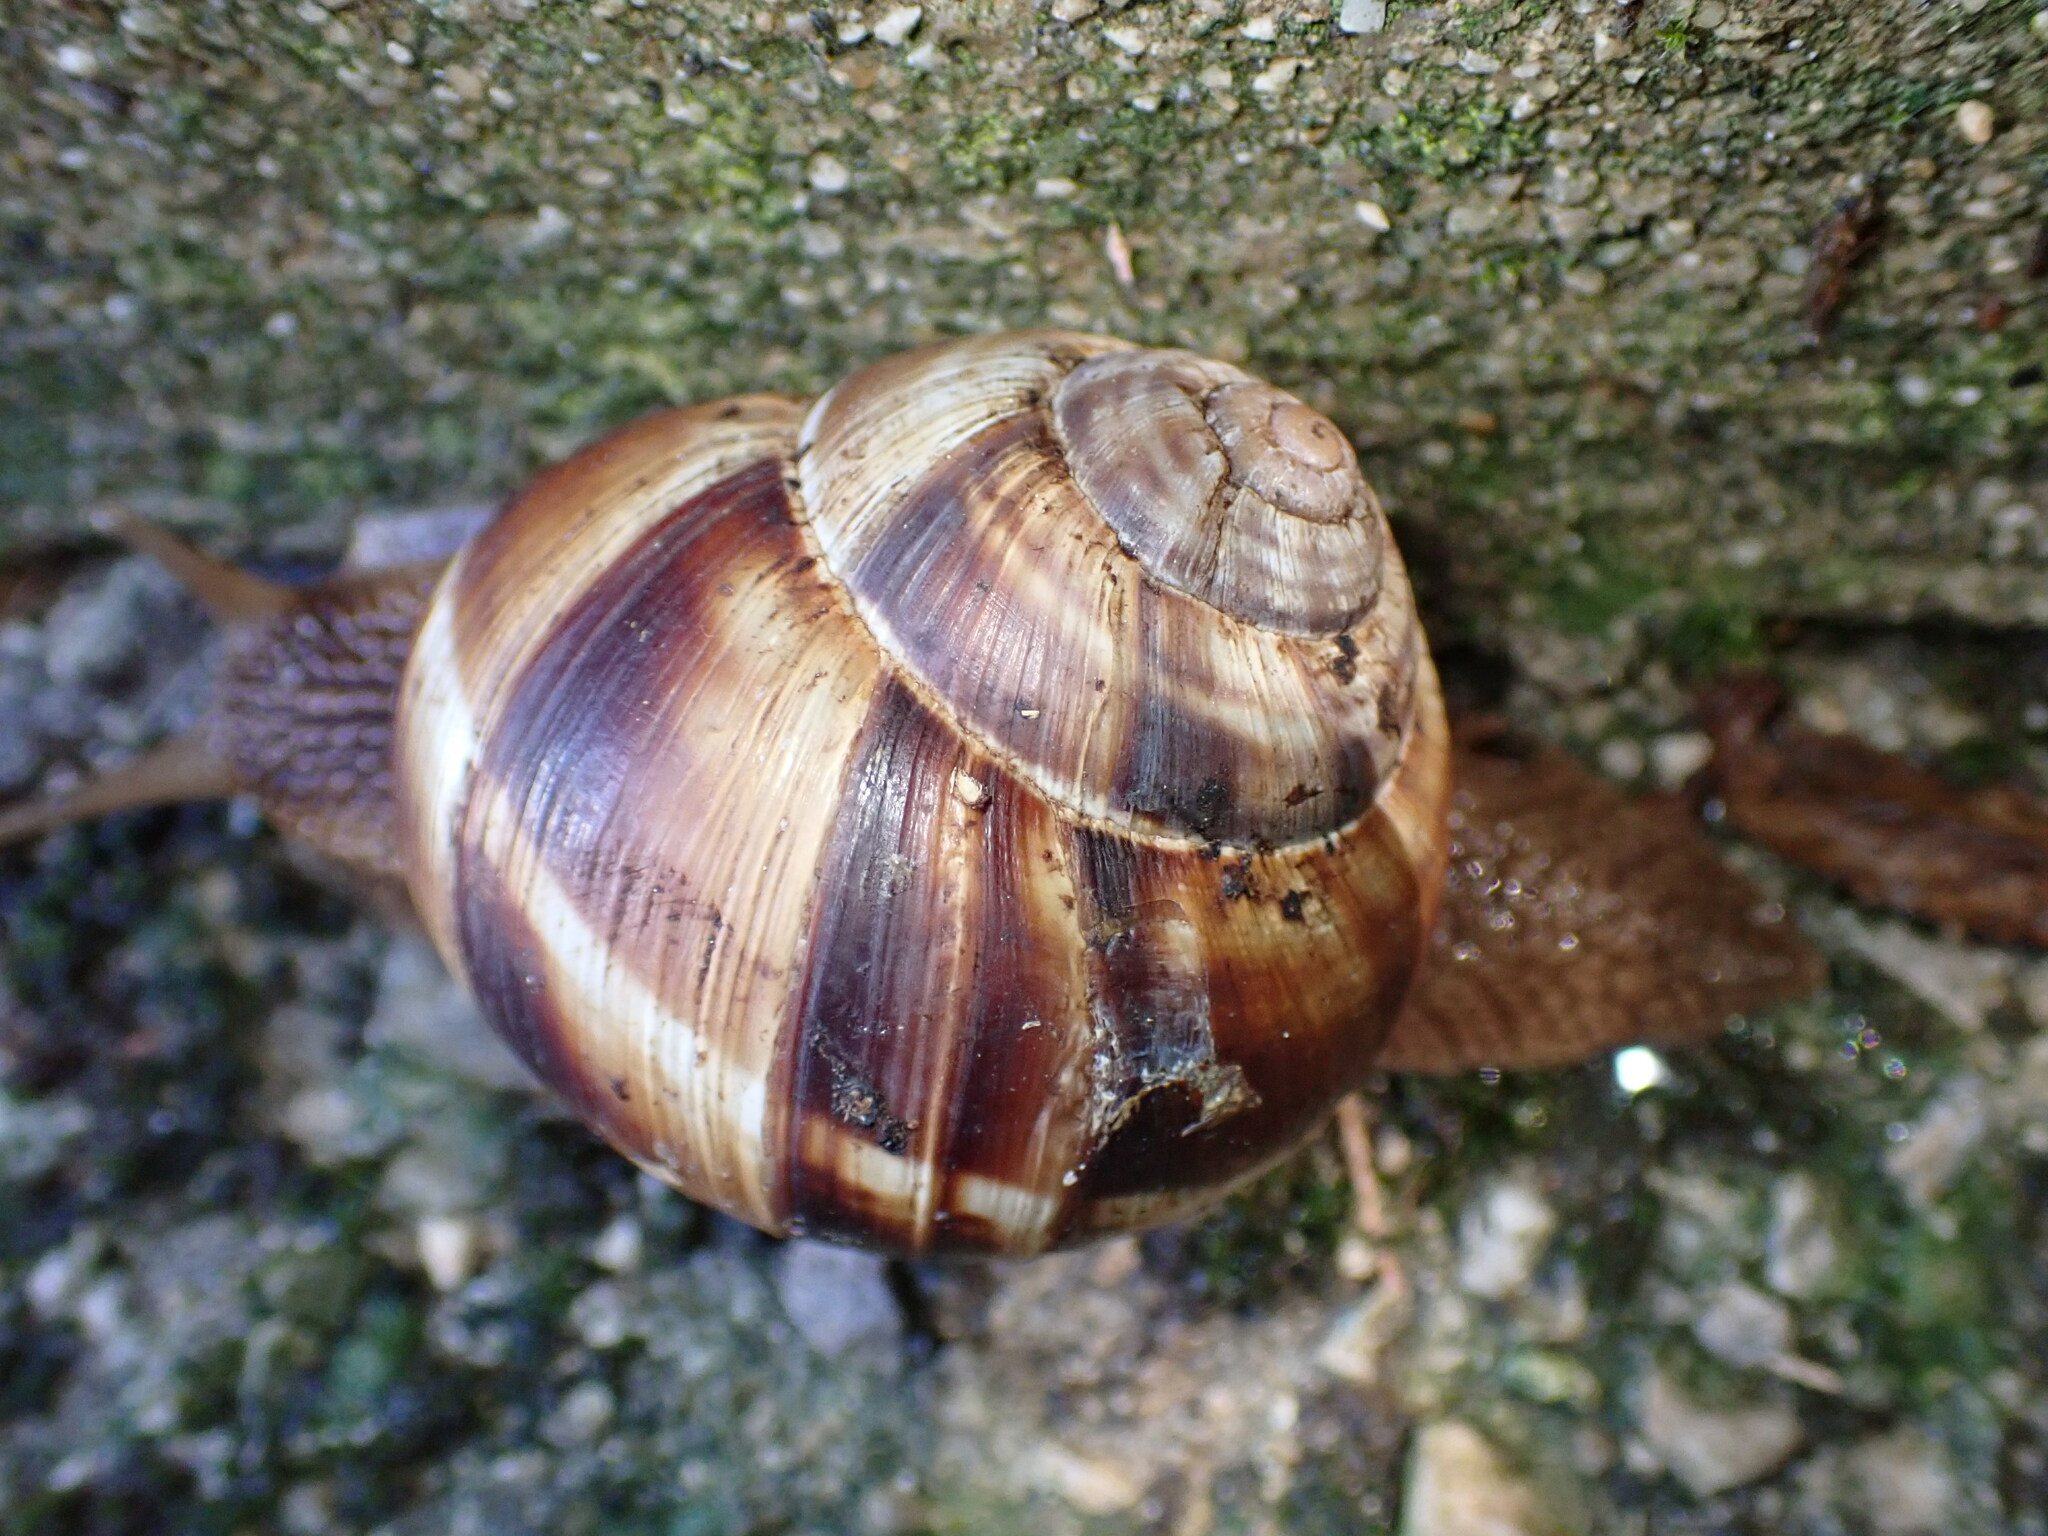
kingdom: Animalia
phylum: Mollusca
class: Gastropoda
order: Stylommatophora
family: Helicidae
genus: Helix
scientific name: Helix lucorum
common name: Turkish snail
